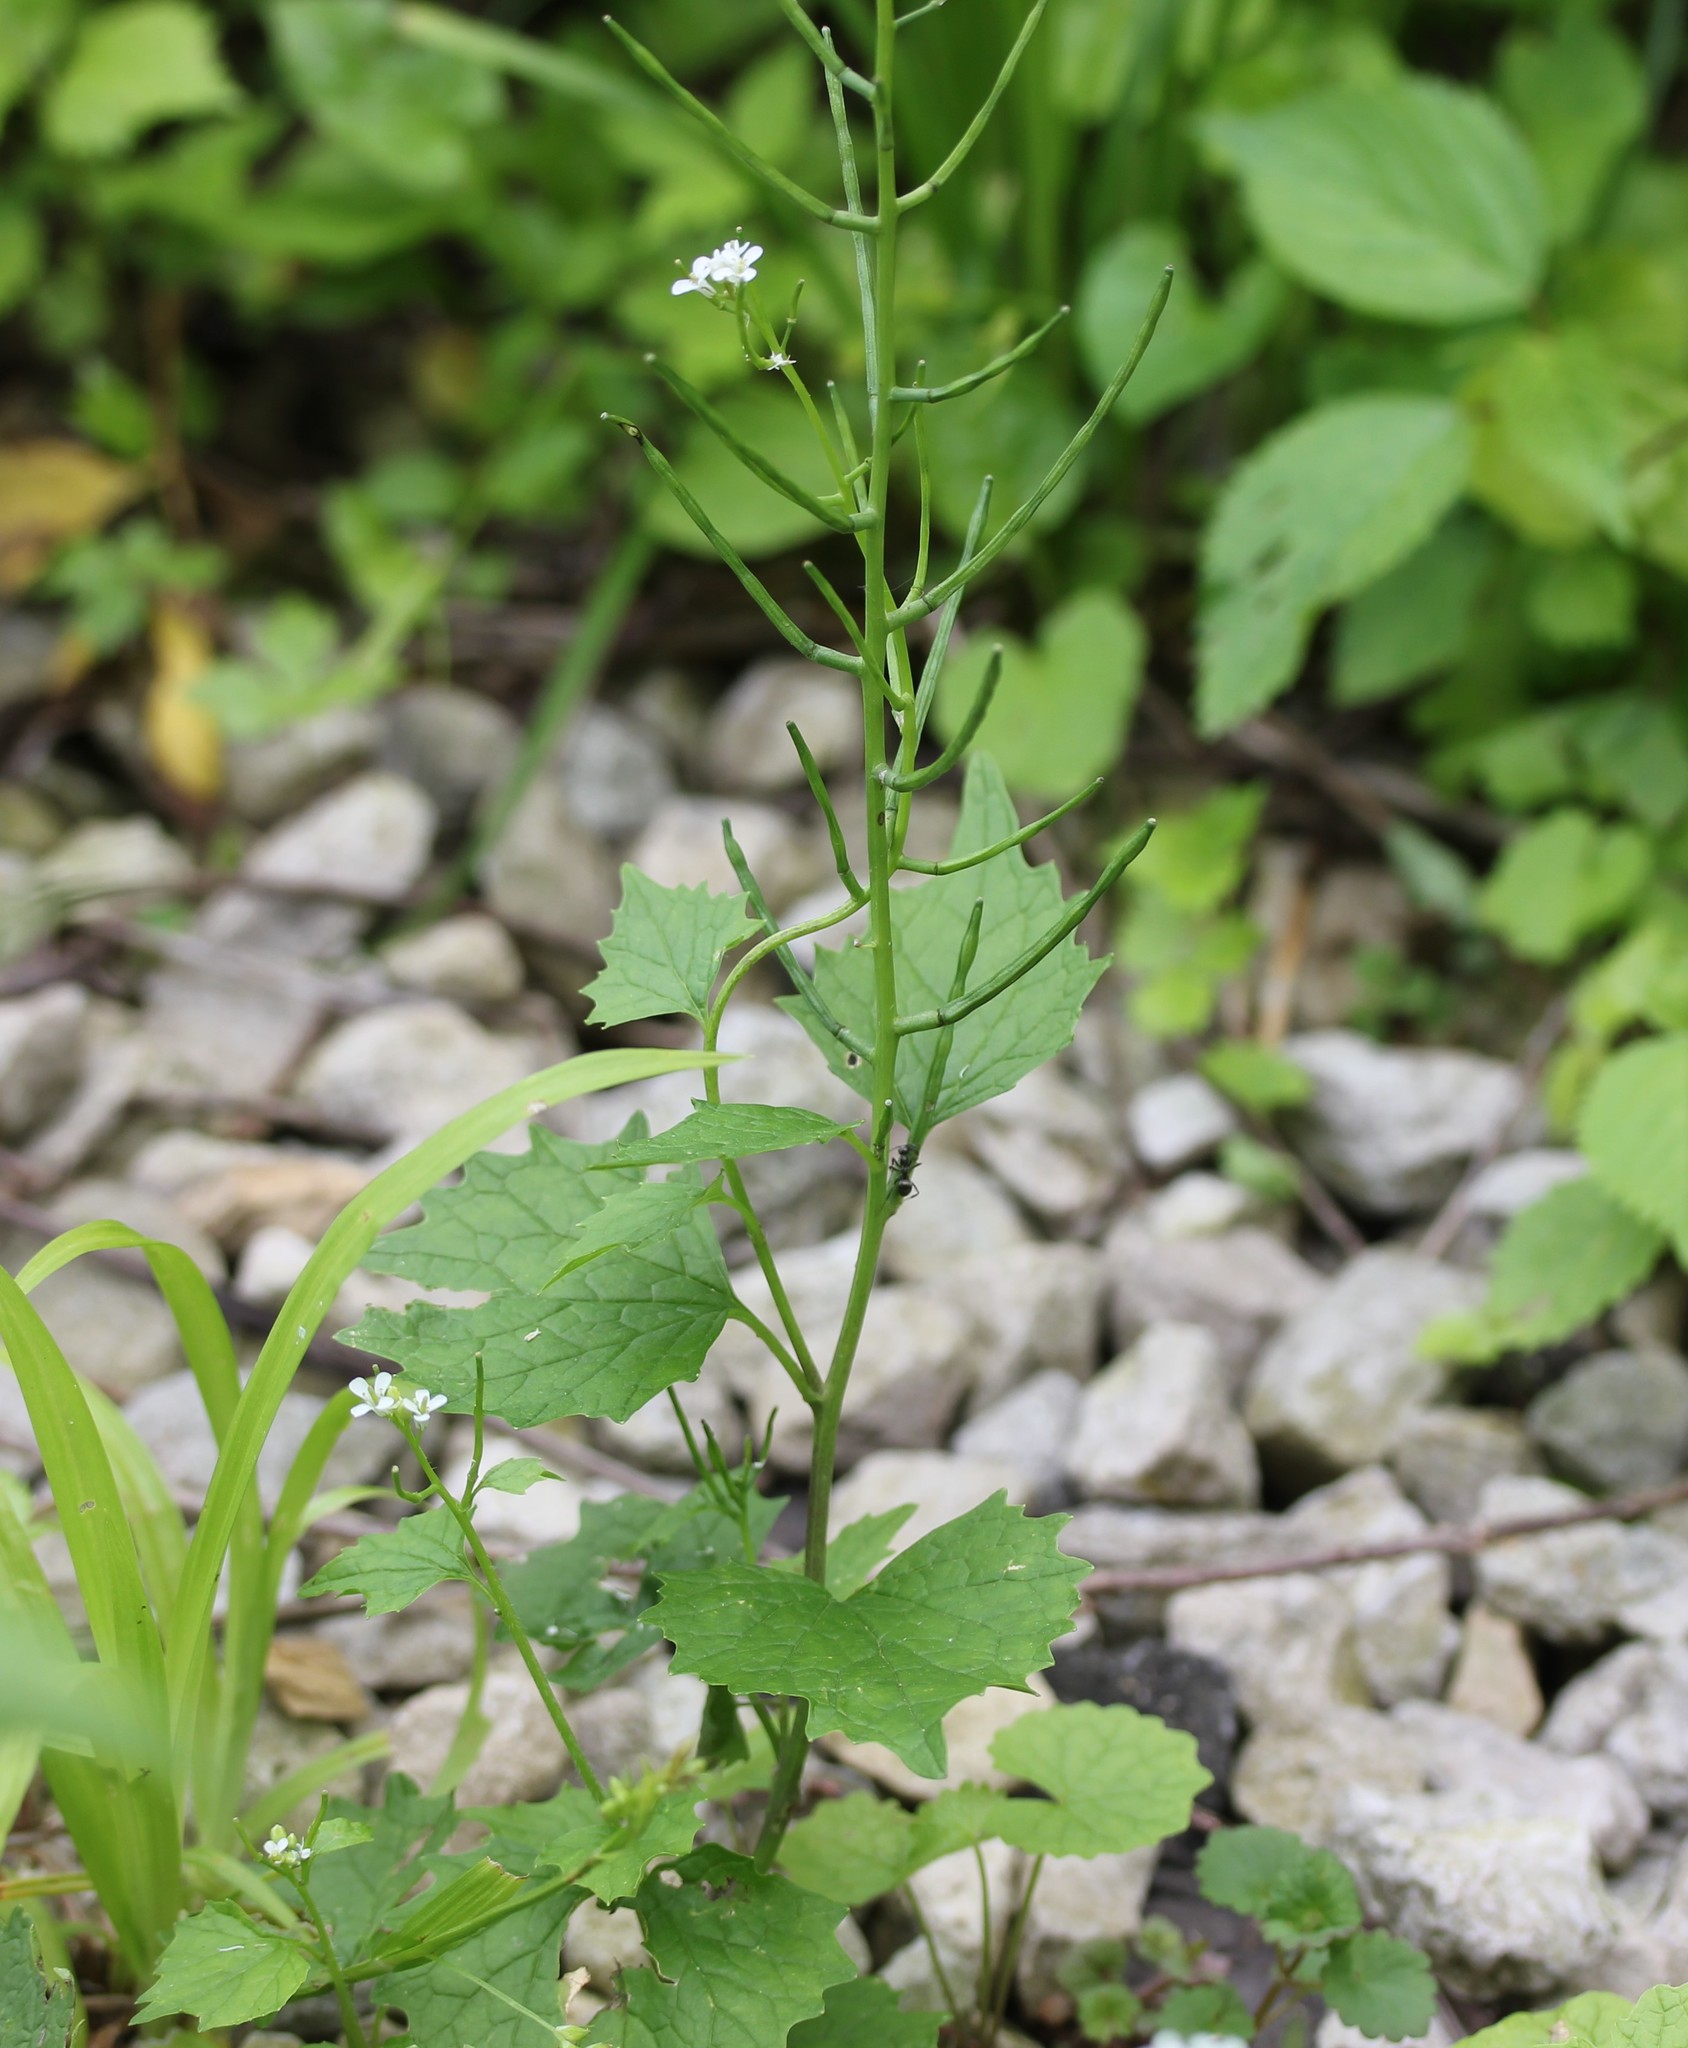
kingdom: Plantae
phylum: Tracheophyta
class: Magnoliopsida
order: Brassicales
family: Brassicaceae
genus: Alliaria
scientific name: Alliaria petiolata
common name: Garlic mustard
